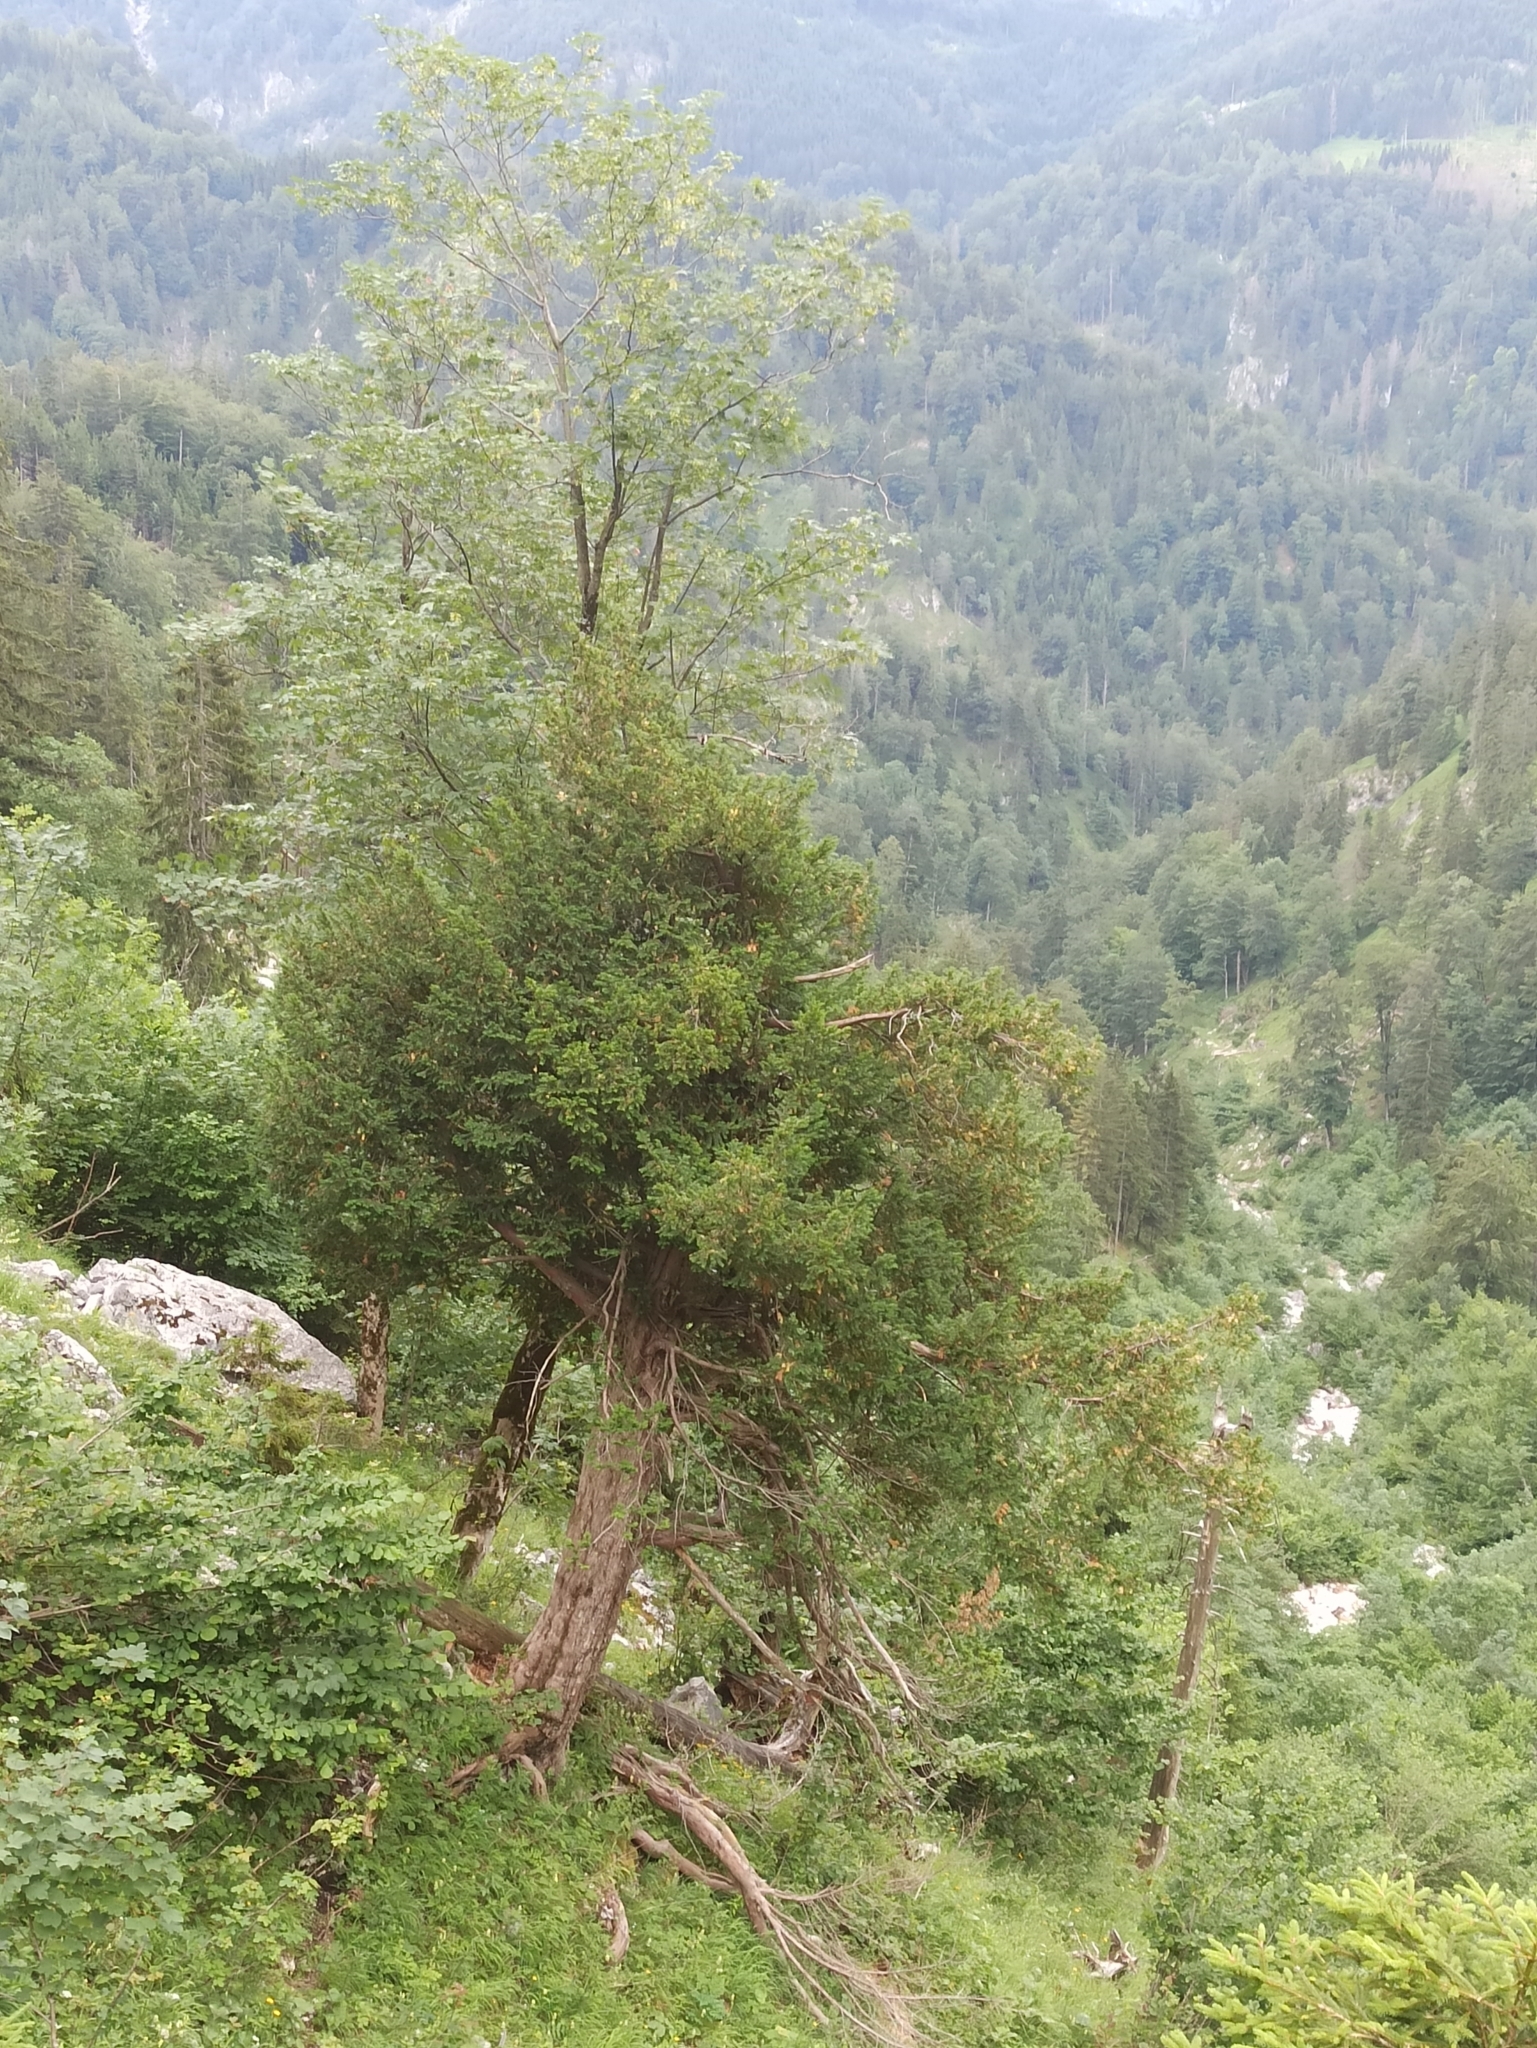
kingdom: Plantae
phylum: Tracheophyta
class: Pinopsida
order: Pinales
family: Taxaceae
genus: Taxus
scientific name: Taxus baccata
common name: Yew
